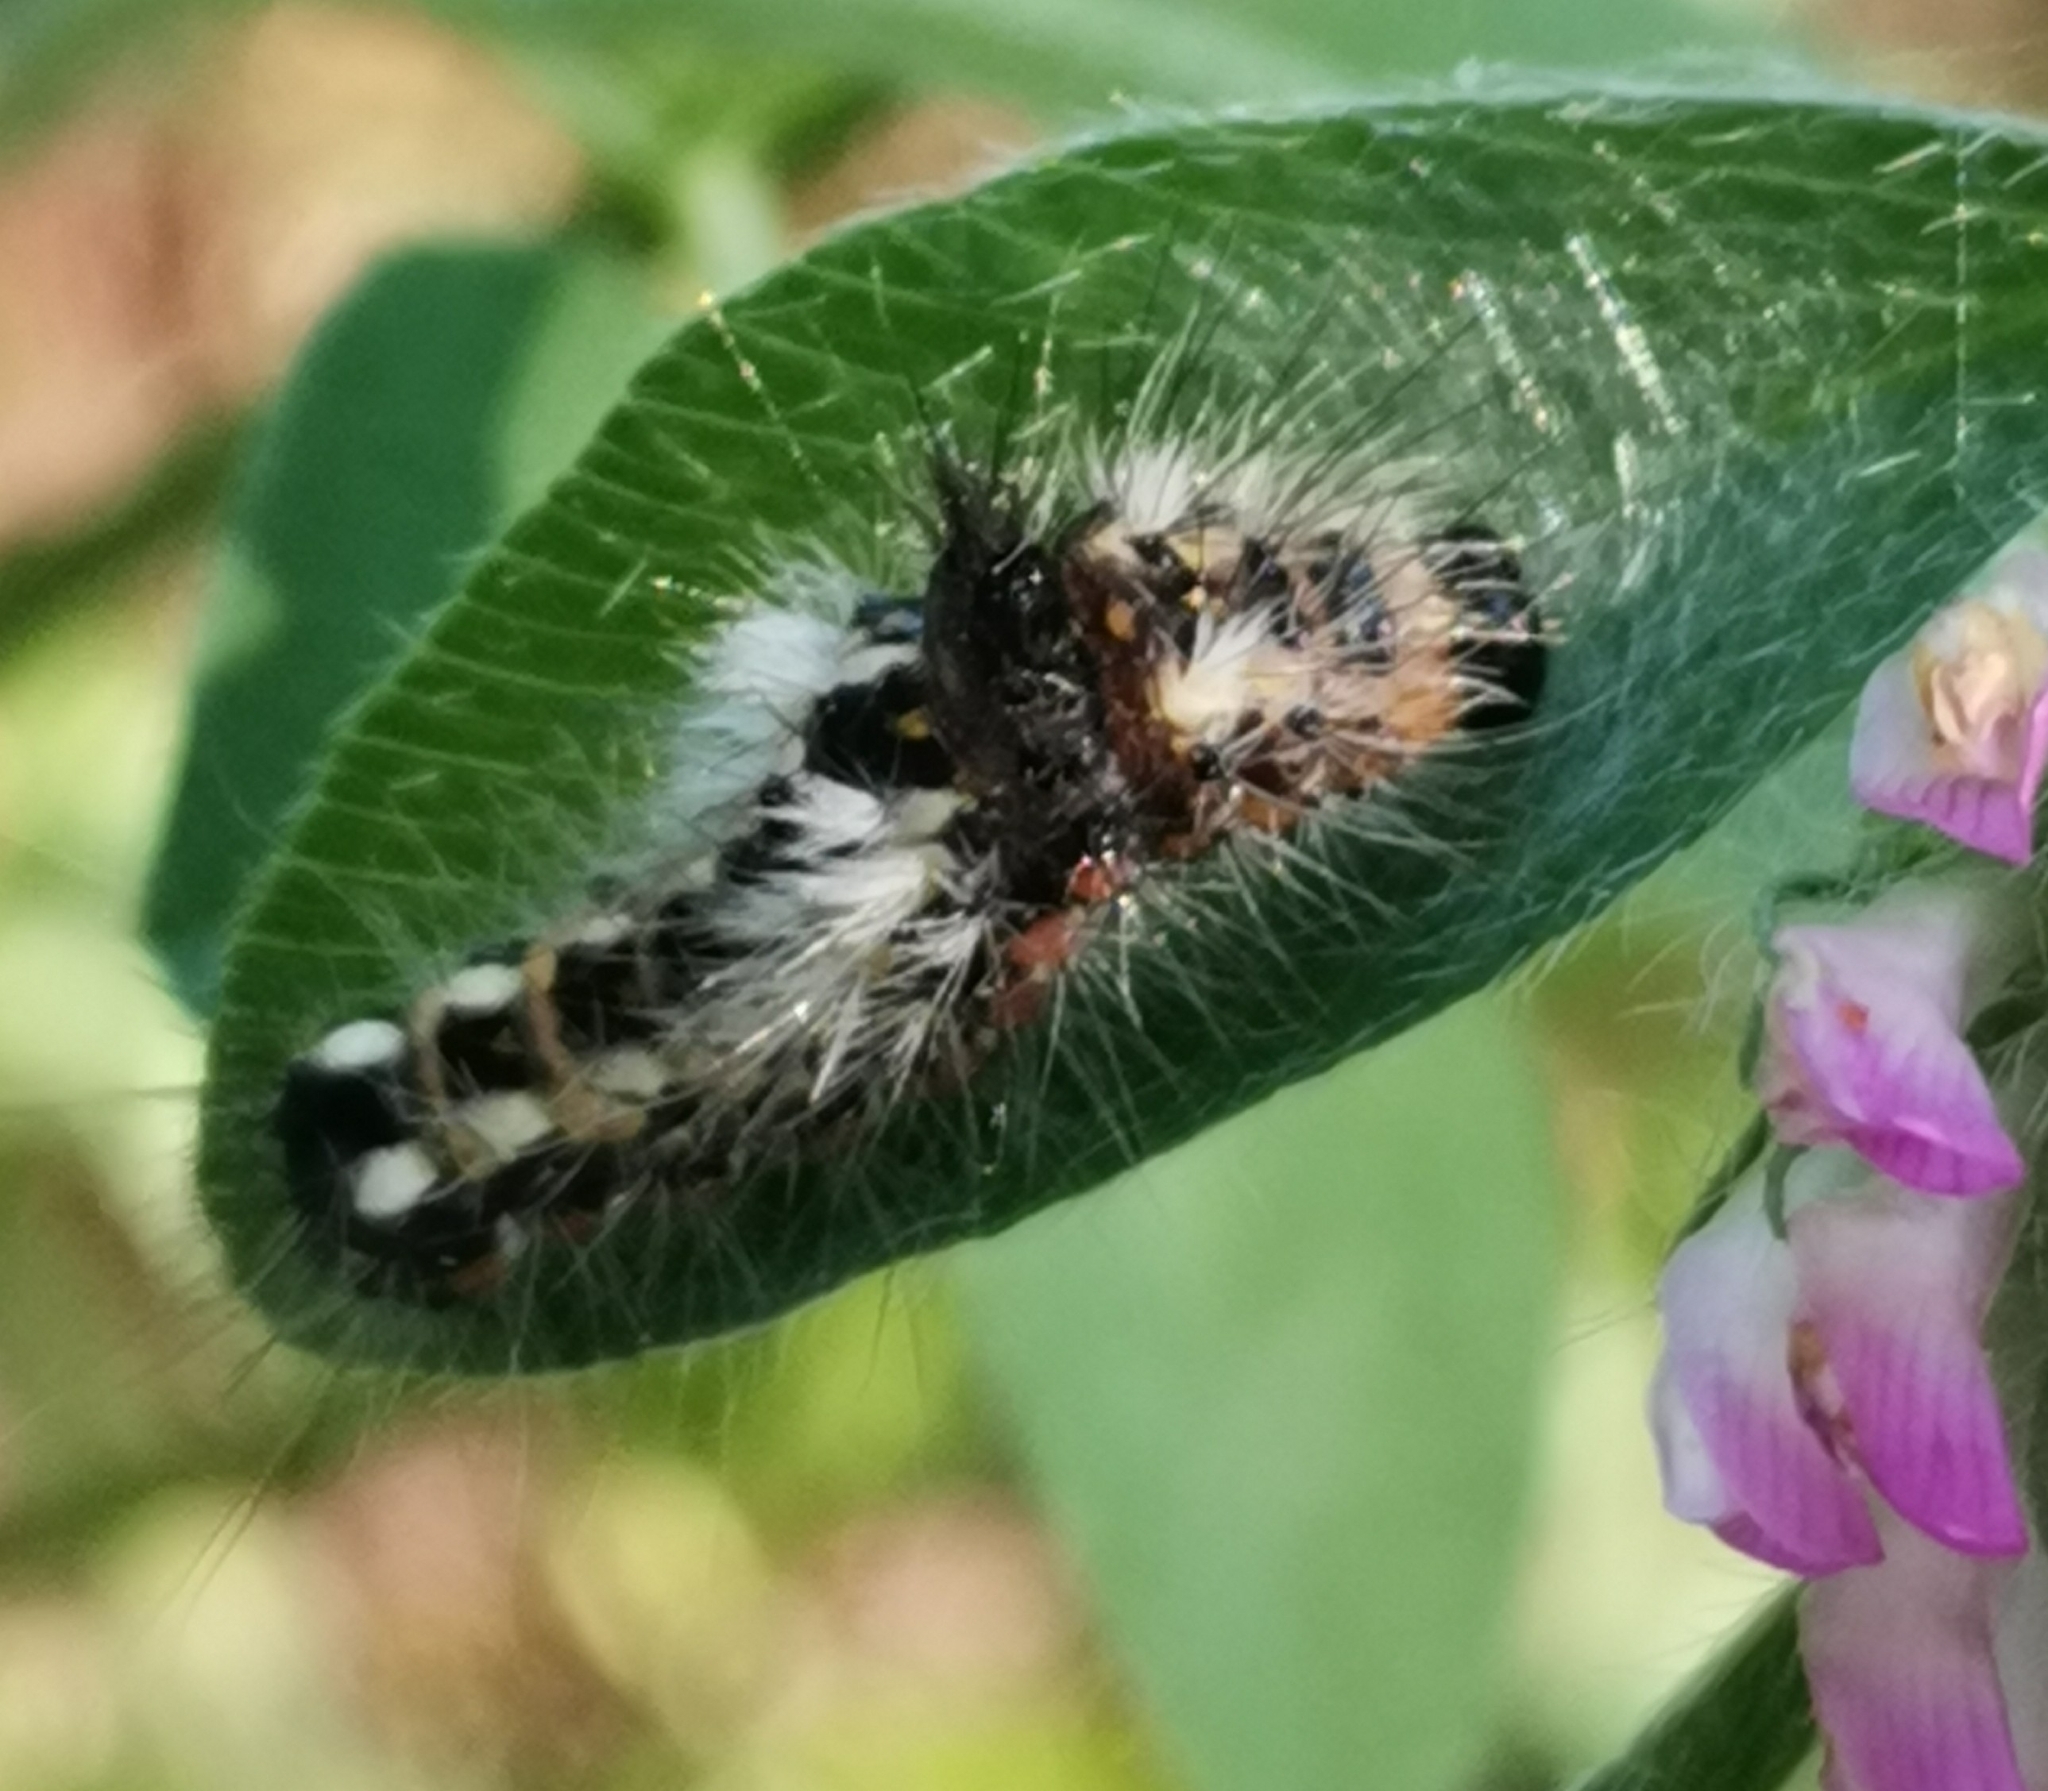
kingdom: Animalia
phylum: Arthropoda
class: Insecta
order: Lepidoptera
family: Noctuidae
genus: Acronicta
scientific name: Acronicta rumicis
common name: Knot grass
